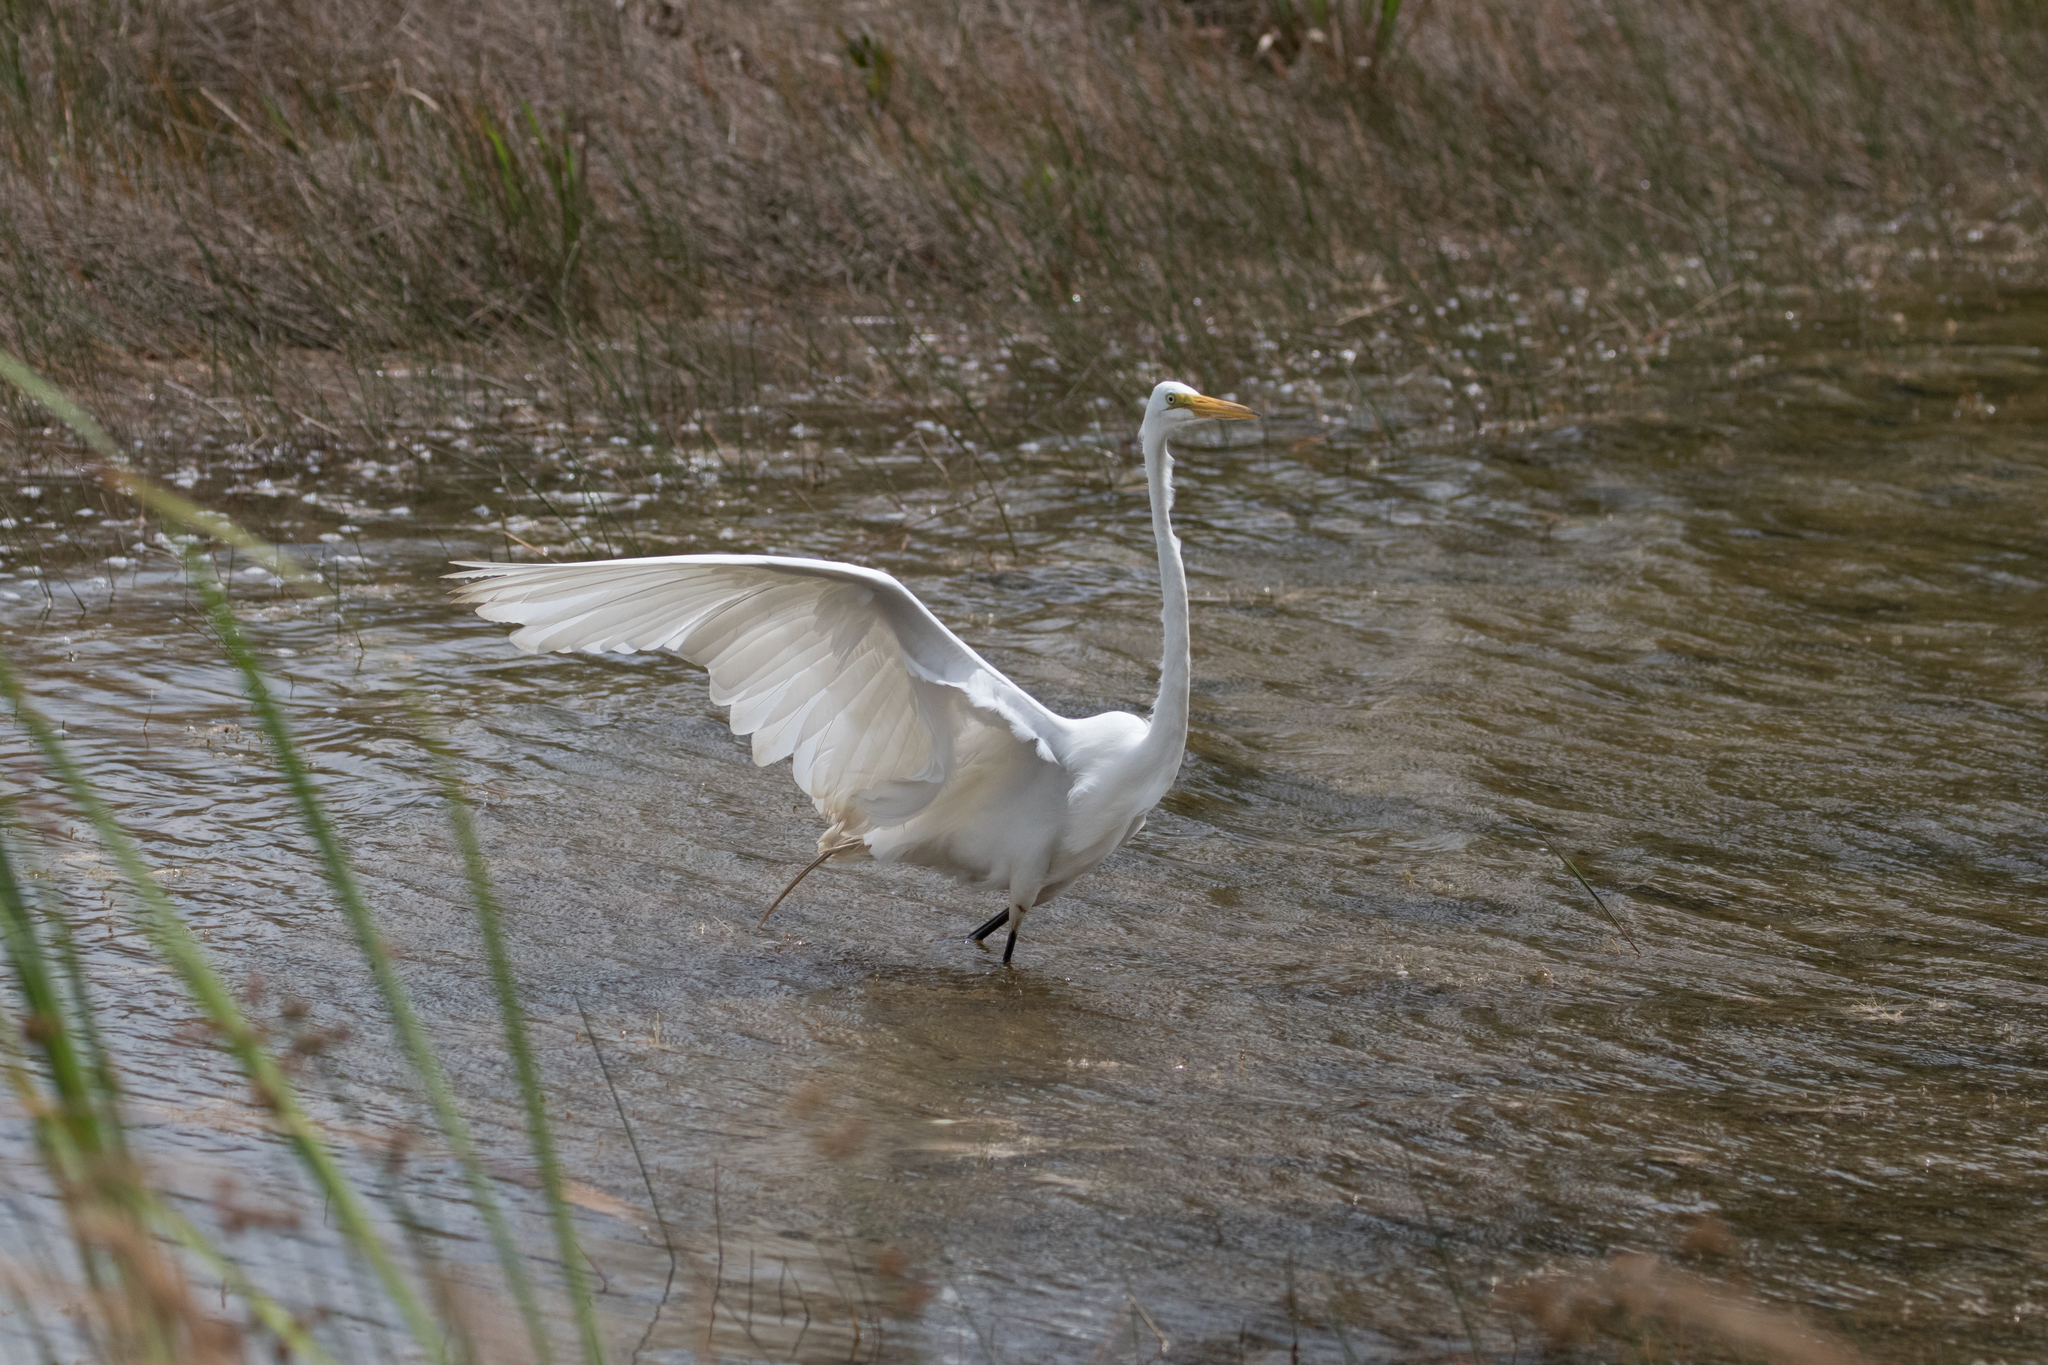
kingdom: Animalia
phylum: Chordata
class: Aves
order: Pelecaniformes
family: Ardeidae
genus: Ardea
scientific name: Ardea alba
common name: Great egret
